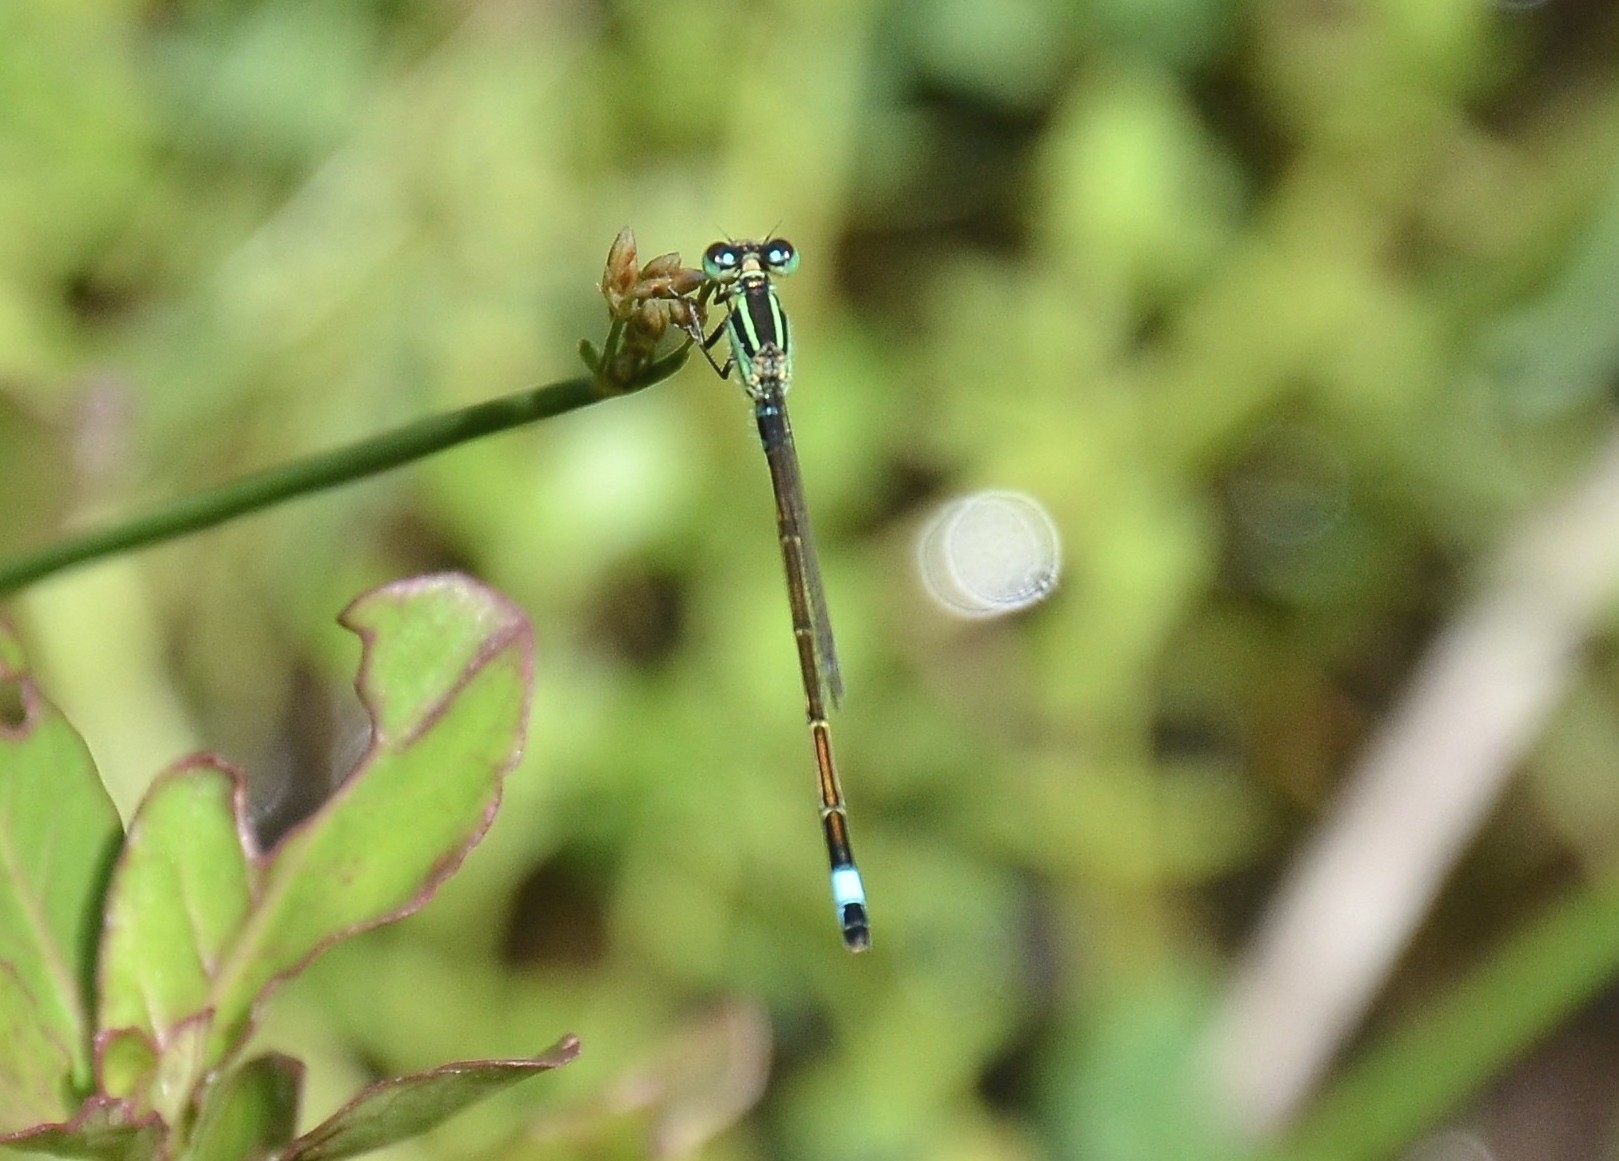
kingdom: Animalia
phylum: Arthropoda
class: Insecta
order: Odonata
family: Coenagrionidae
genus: Ischnura
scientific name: Ischnura senegalensis
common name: Tropical bluetail
